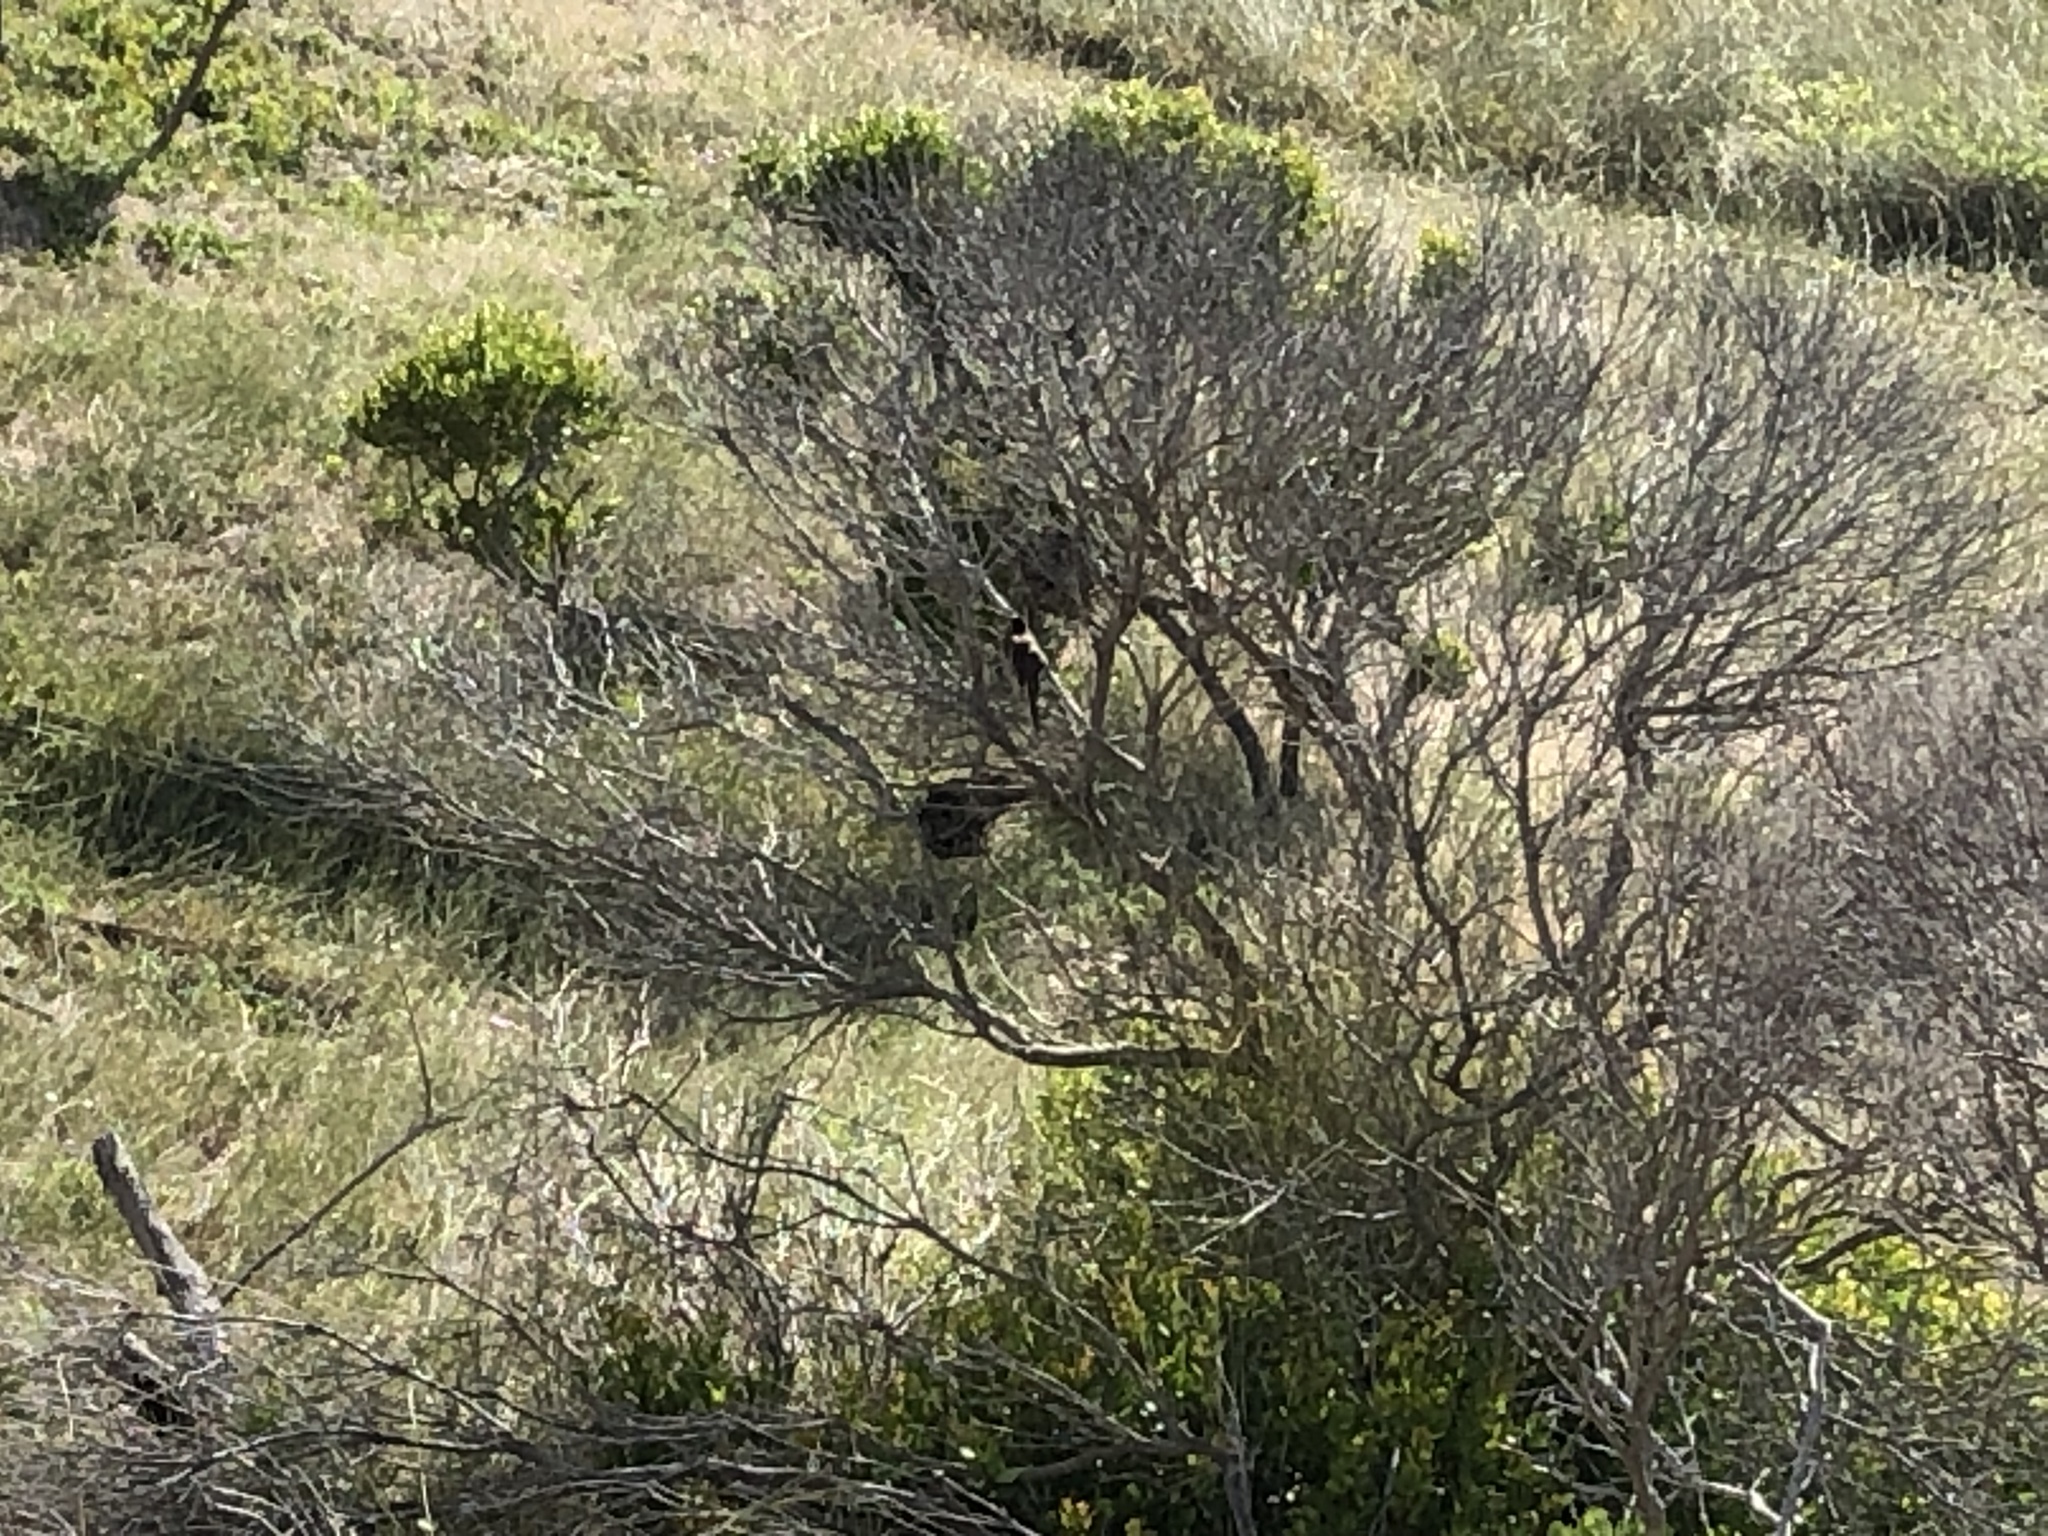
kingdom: Animalia
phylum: Chordata
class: Aves
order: Passeriformes
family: Pycnonotidae
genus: Pycnonotus
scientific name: Pycnonotus capensis
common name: Cape bulbul
